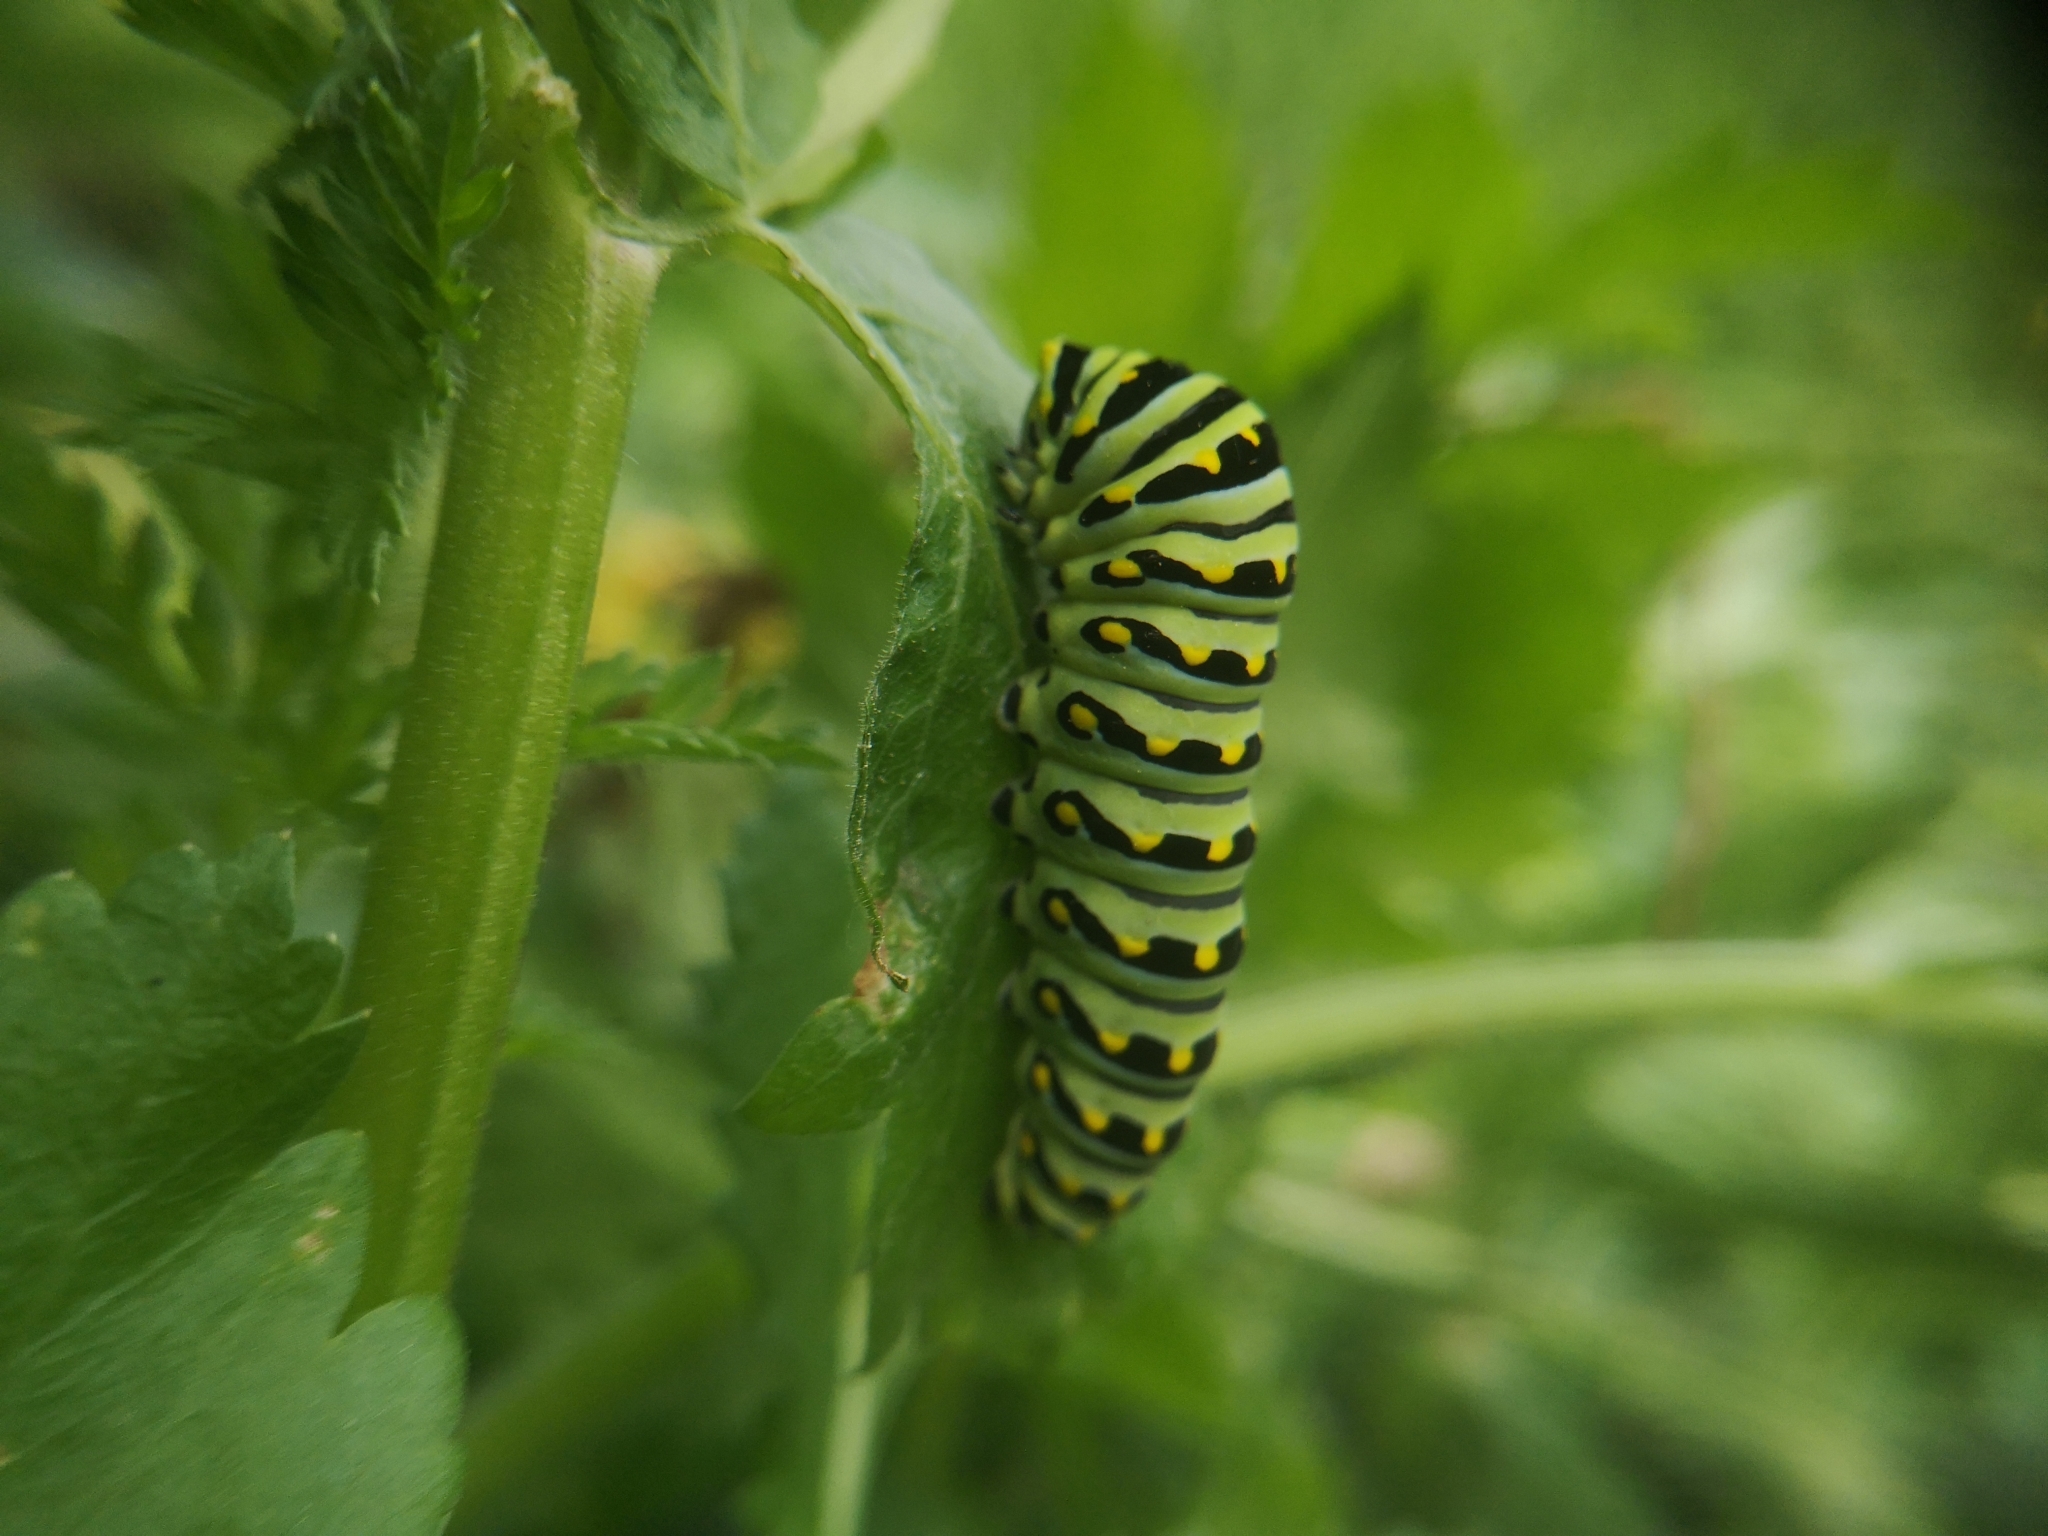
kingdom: Animalia
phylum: Arthropoda
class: Insecta
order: Lepidoptera
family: Papilionidae
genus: Papilio
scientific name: Papilio polyxenes
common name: Black swallowtail
